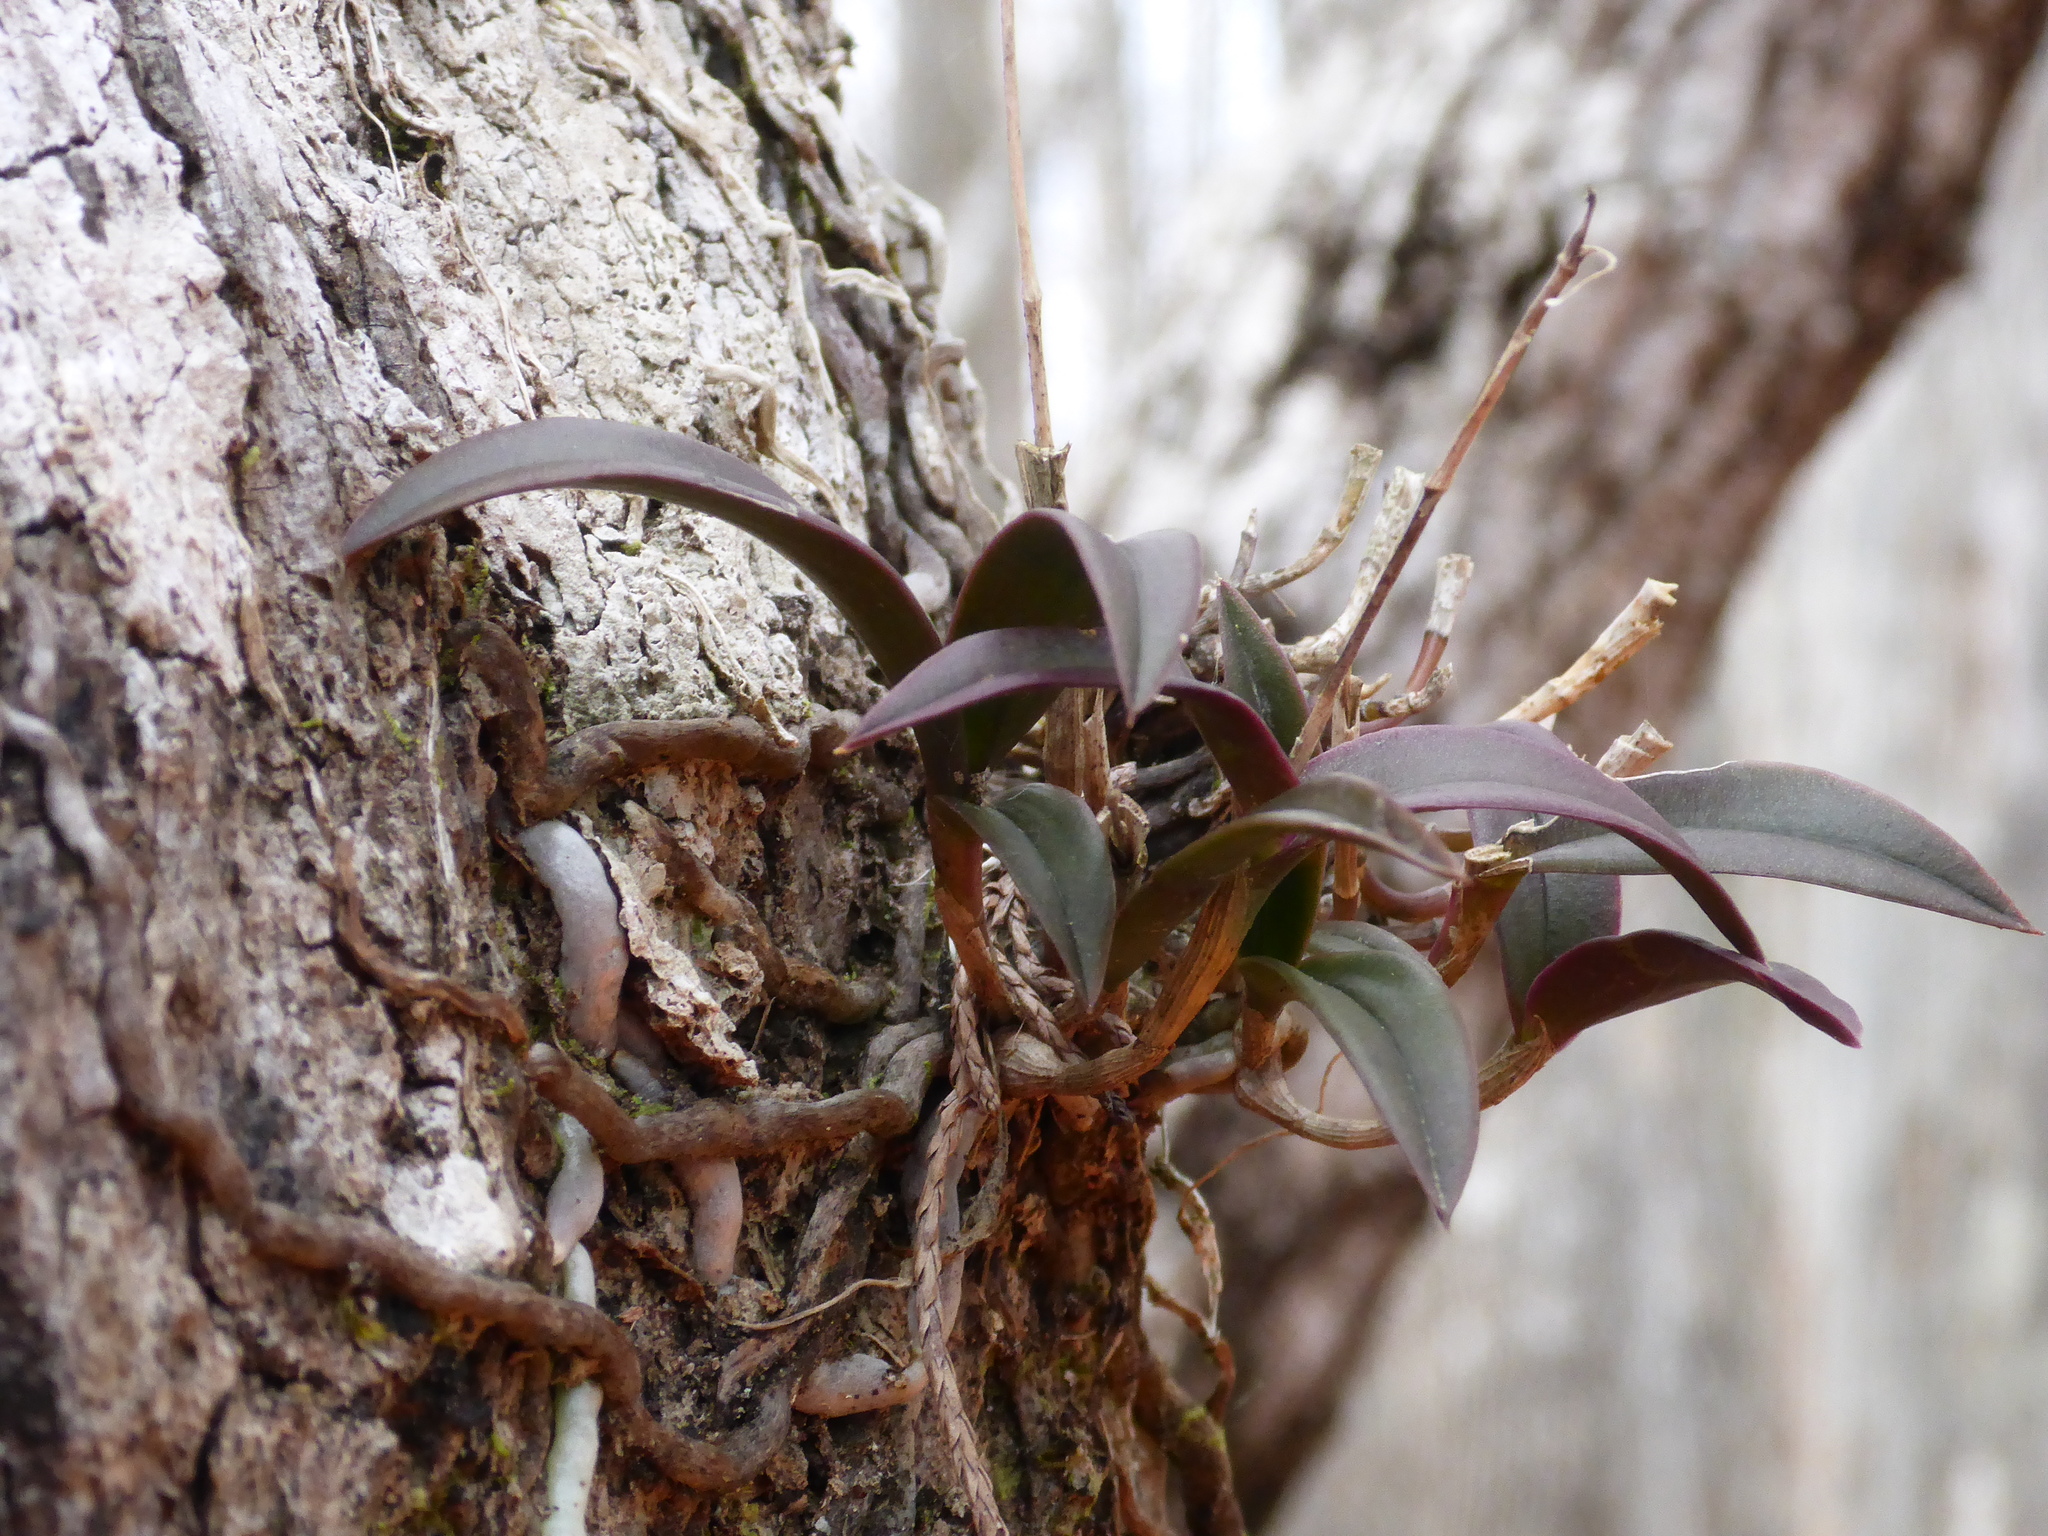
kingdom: Plantae
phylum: Tracheophyta
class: Liliopsida
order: Asparagales
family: Orchidaceae
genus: Epidendrum
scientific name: Epidendrum conopseum
